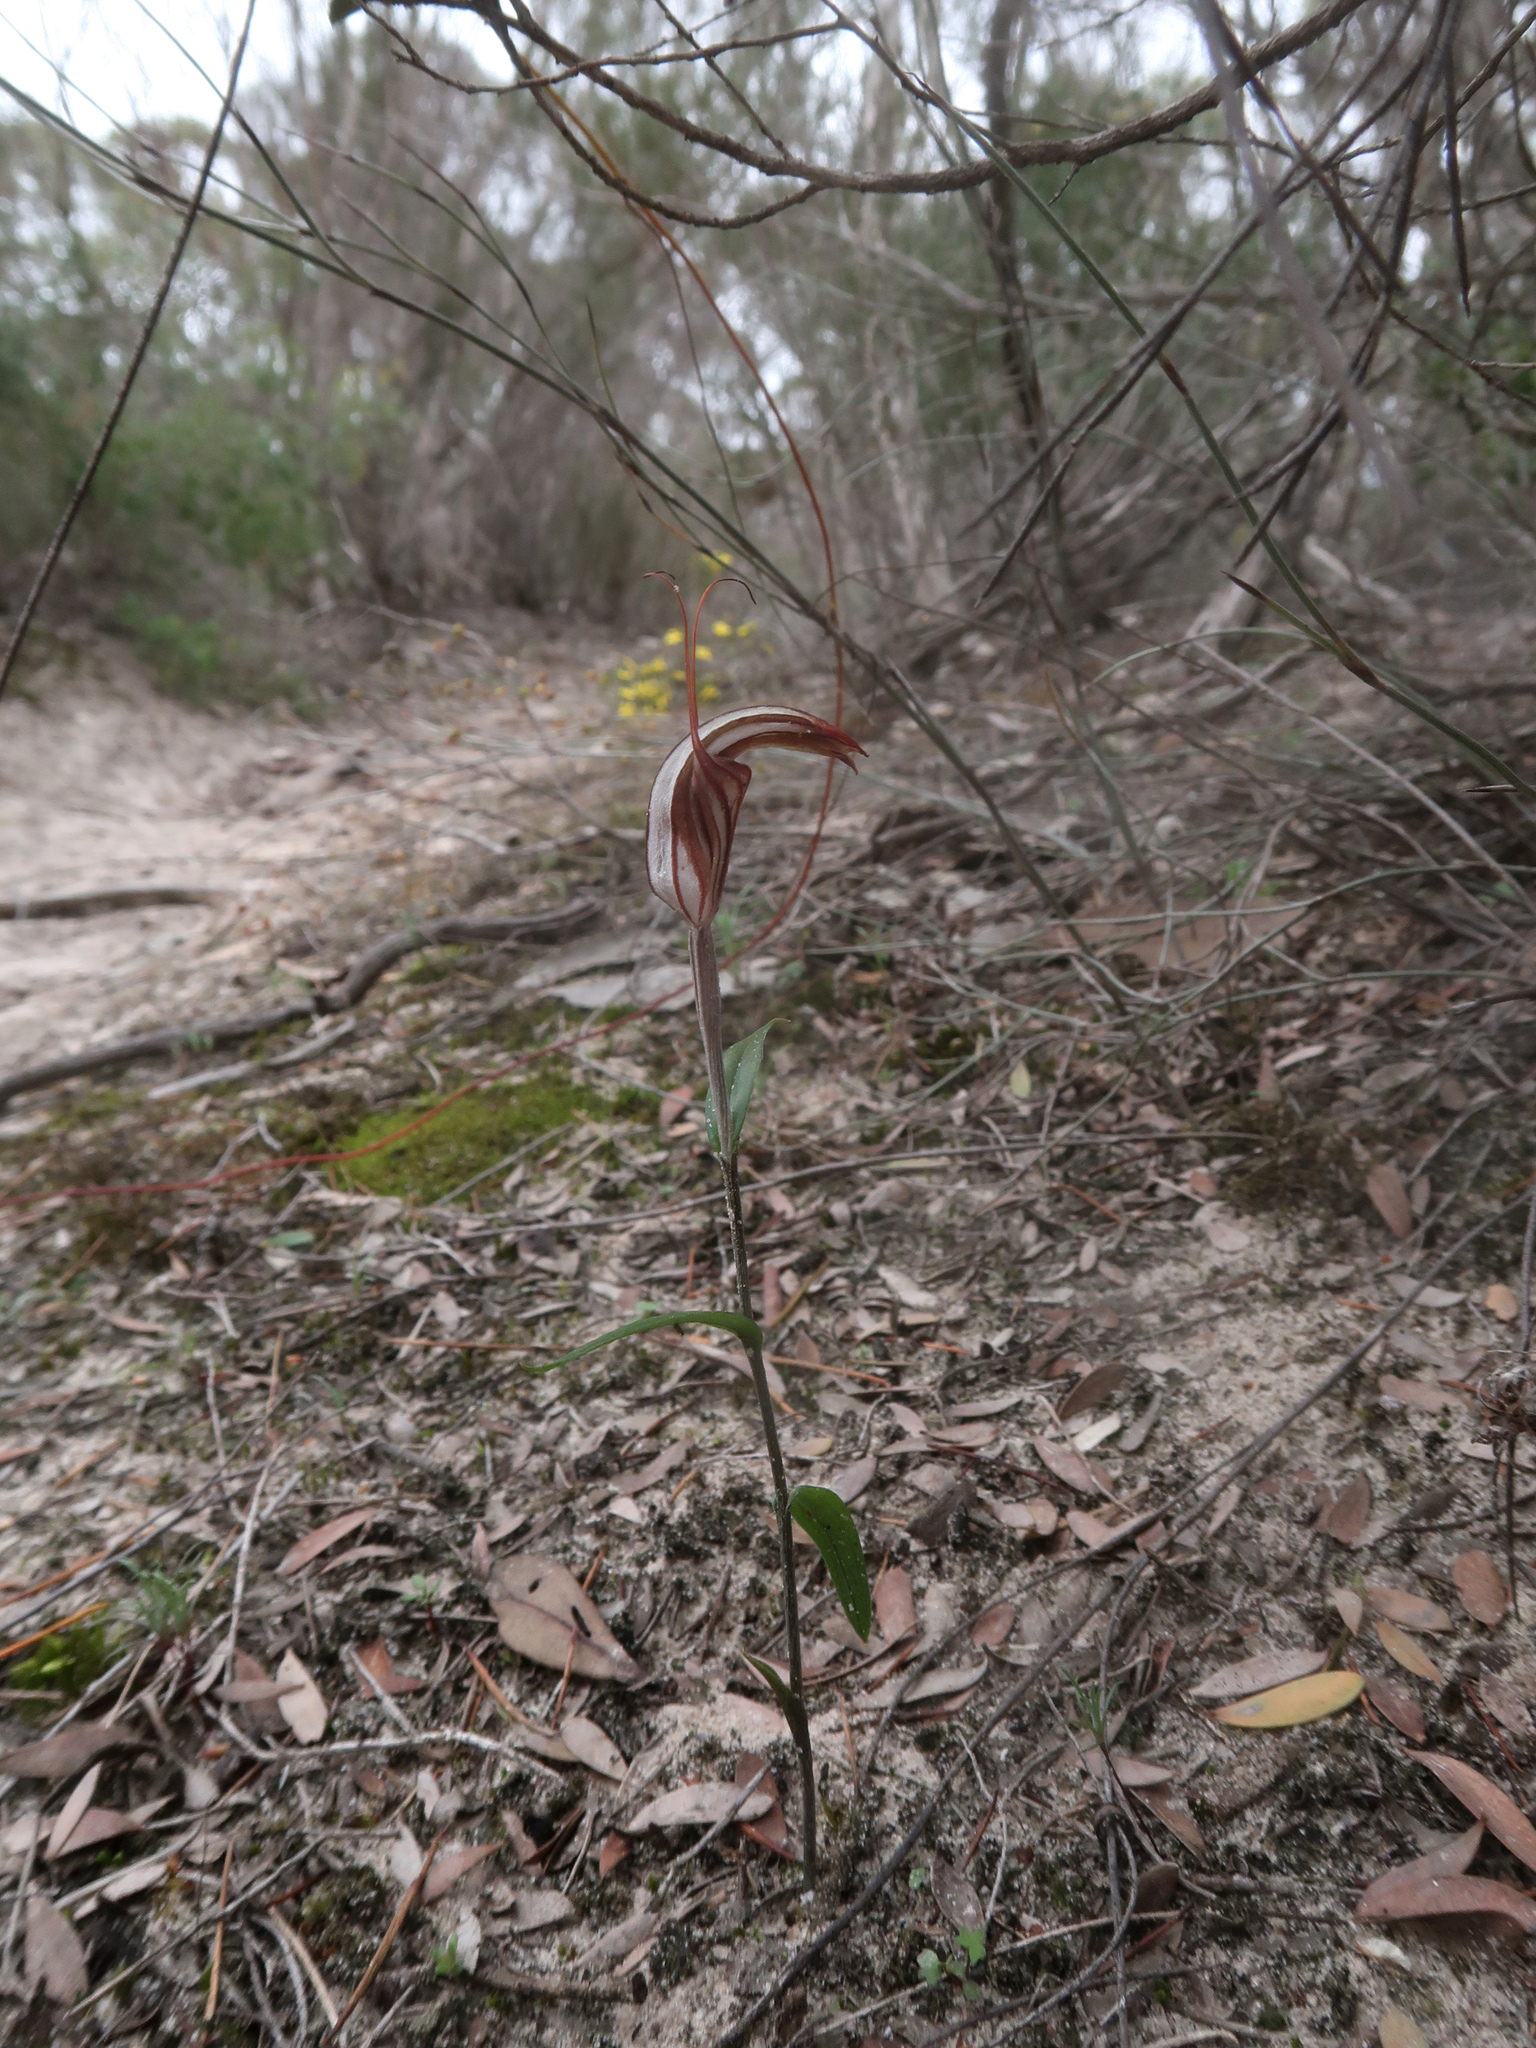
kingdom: Plantae
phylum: Tracheophyta
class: Liliopsida
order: Asparagales
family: Orchidaceae
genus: Pterostylis
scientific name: Pterostylis dolichochila
